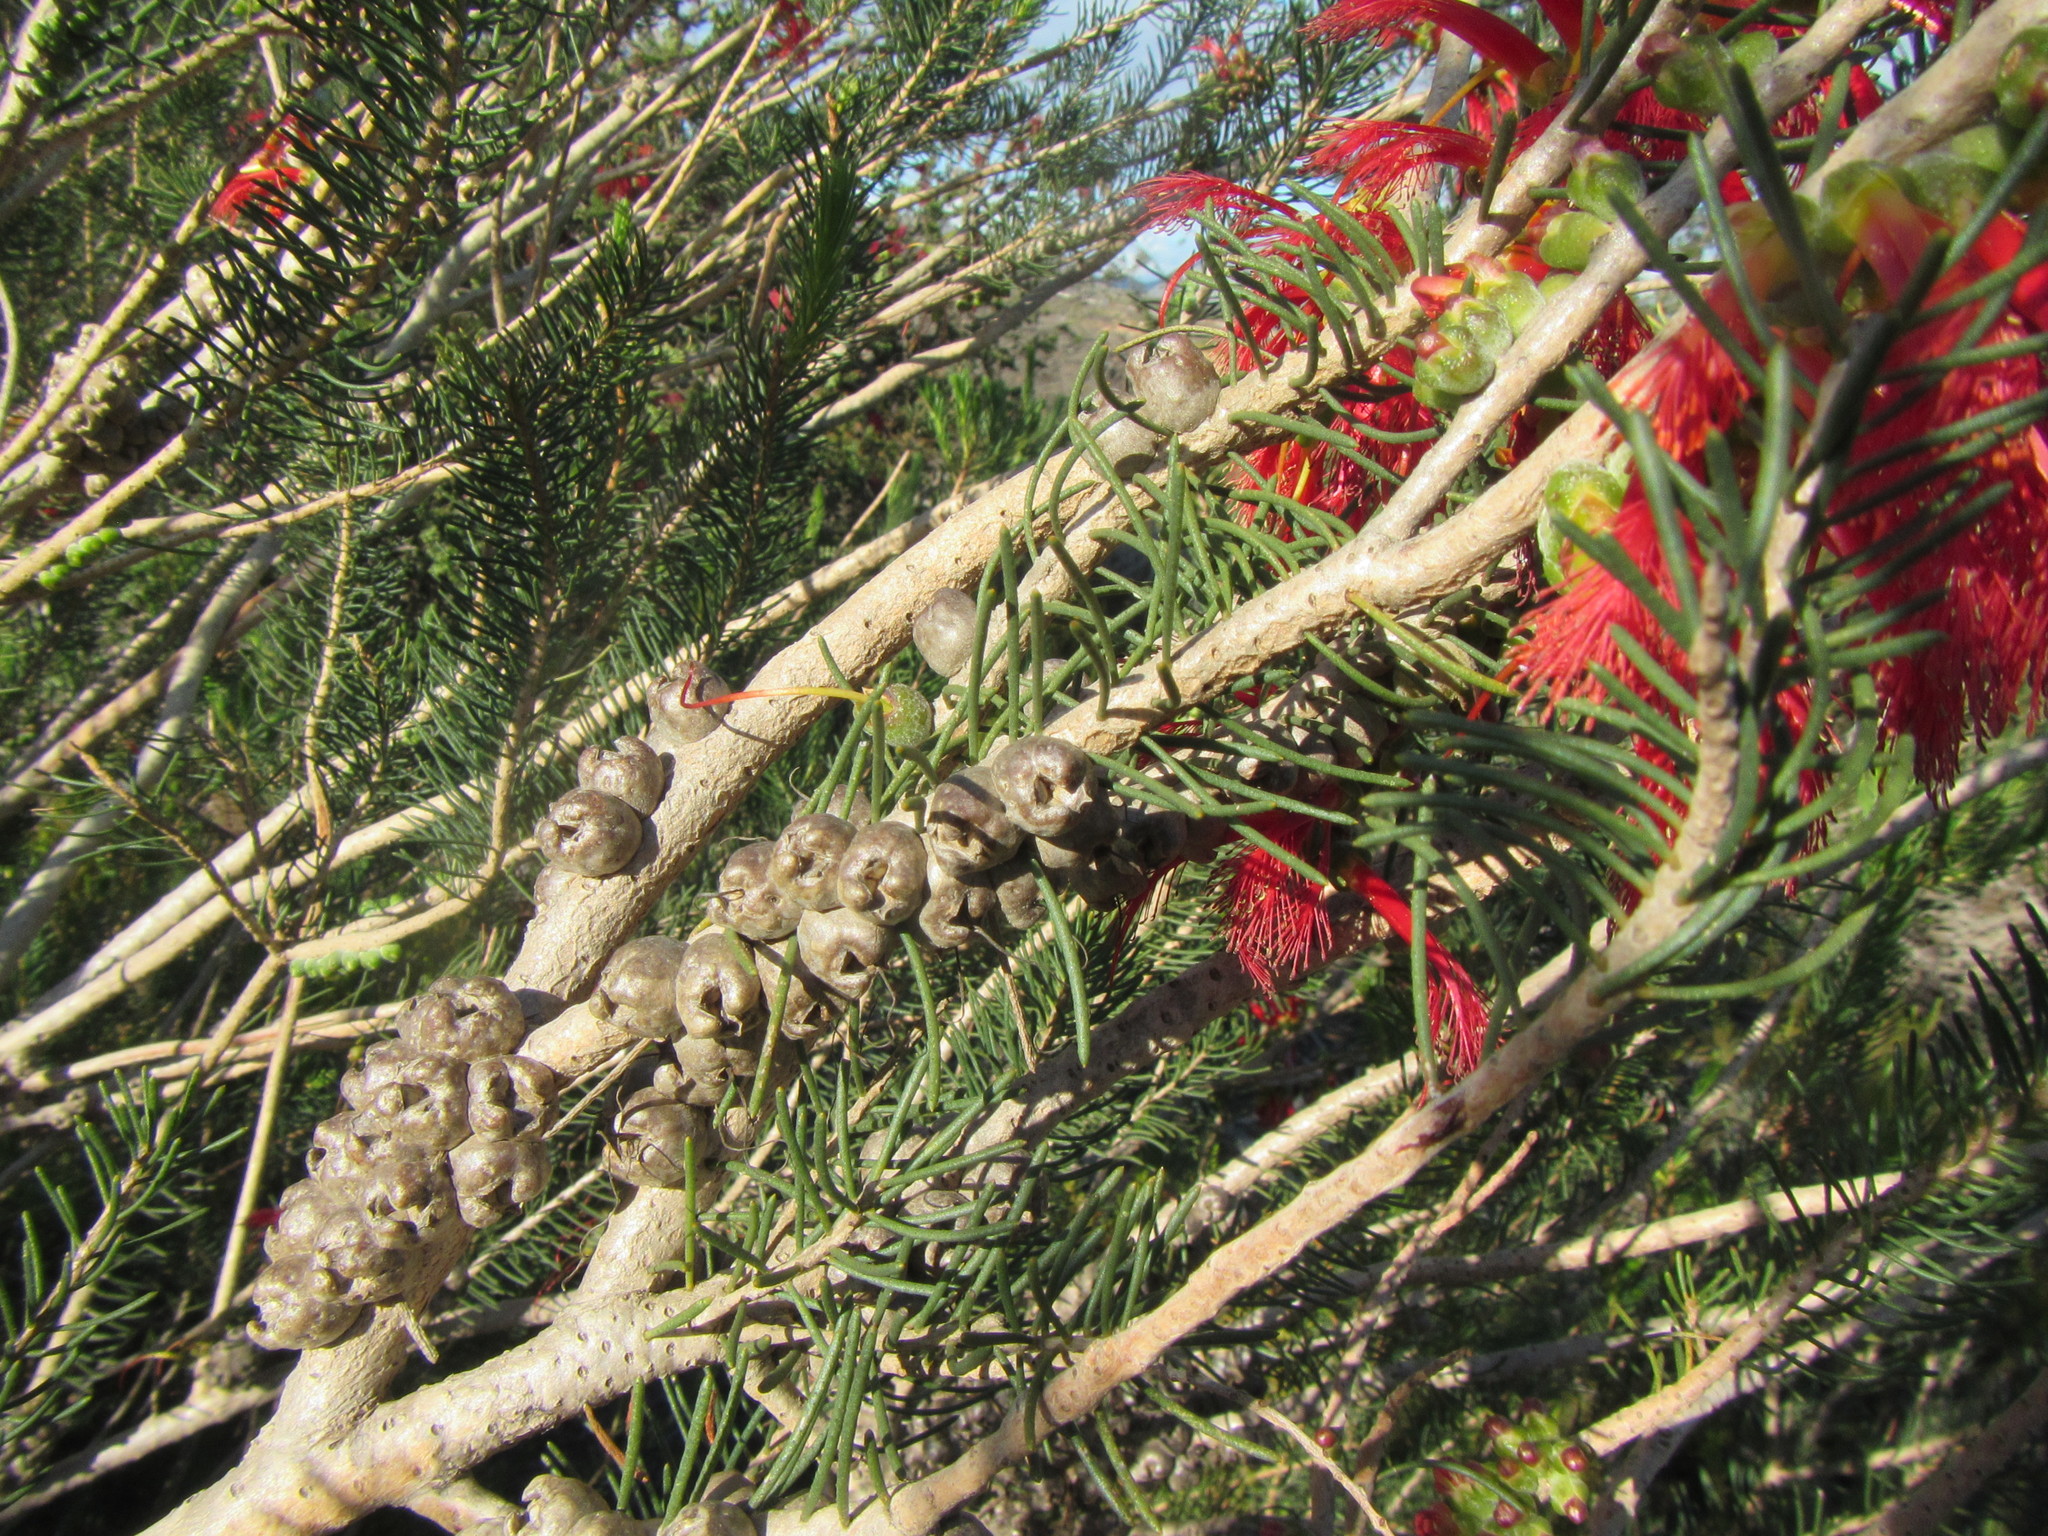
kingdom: Plantae
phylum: Tracheophyta
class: Magnoliopsida
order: Myrtales
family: Myrtaceae
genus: Melaleuca
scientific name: Melaleuca quadrifida
